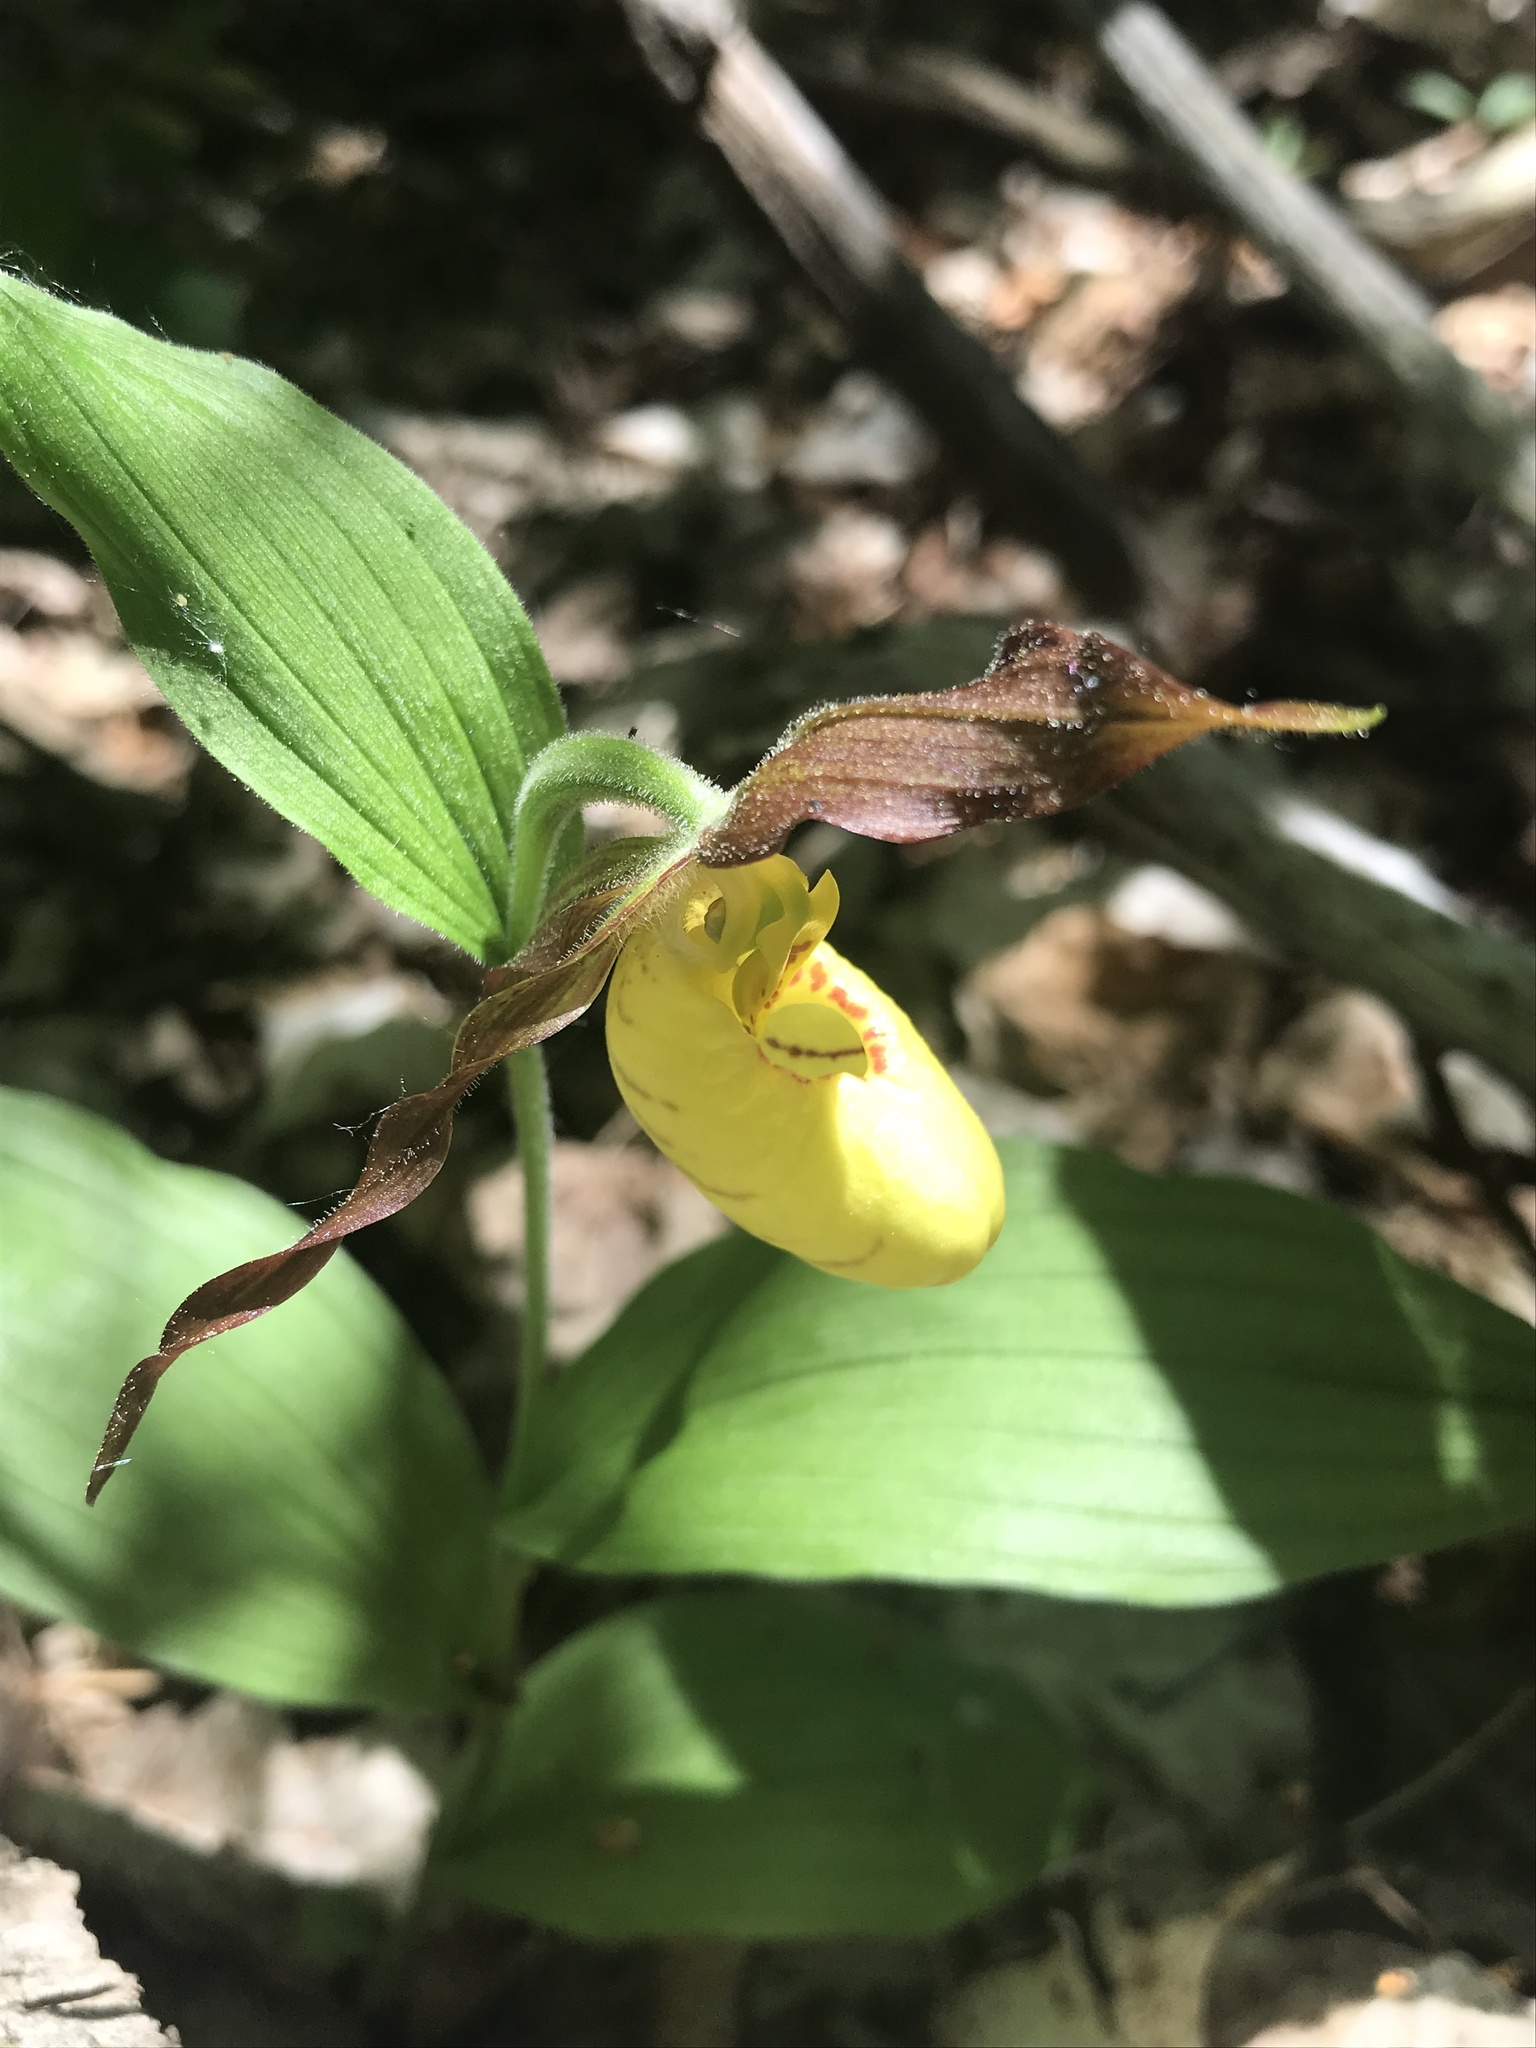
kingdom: Plantae
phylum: Tracheophyta
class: Liliopsida
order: Asparagales
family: Orchidaceae
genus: Cypripedium
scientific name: Cypripedium parviflorum
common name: American yellow lady's-slipper
